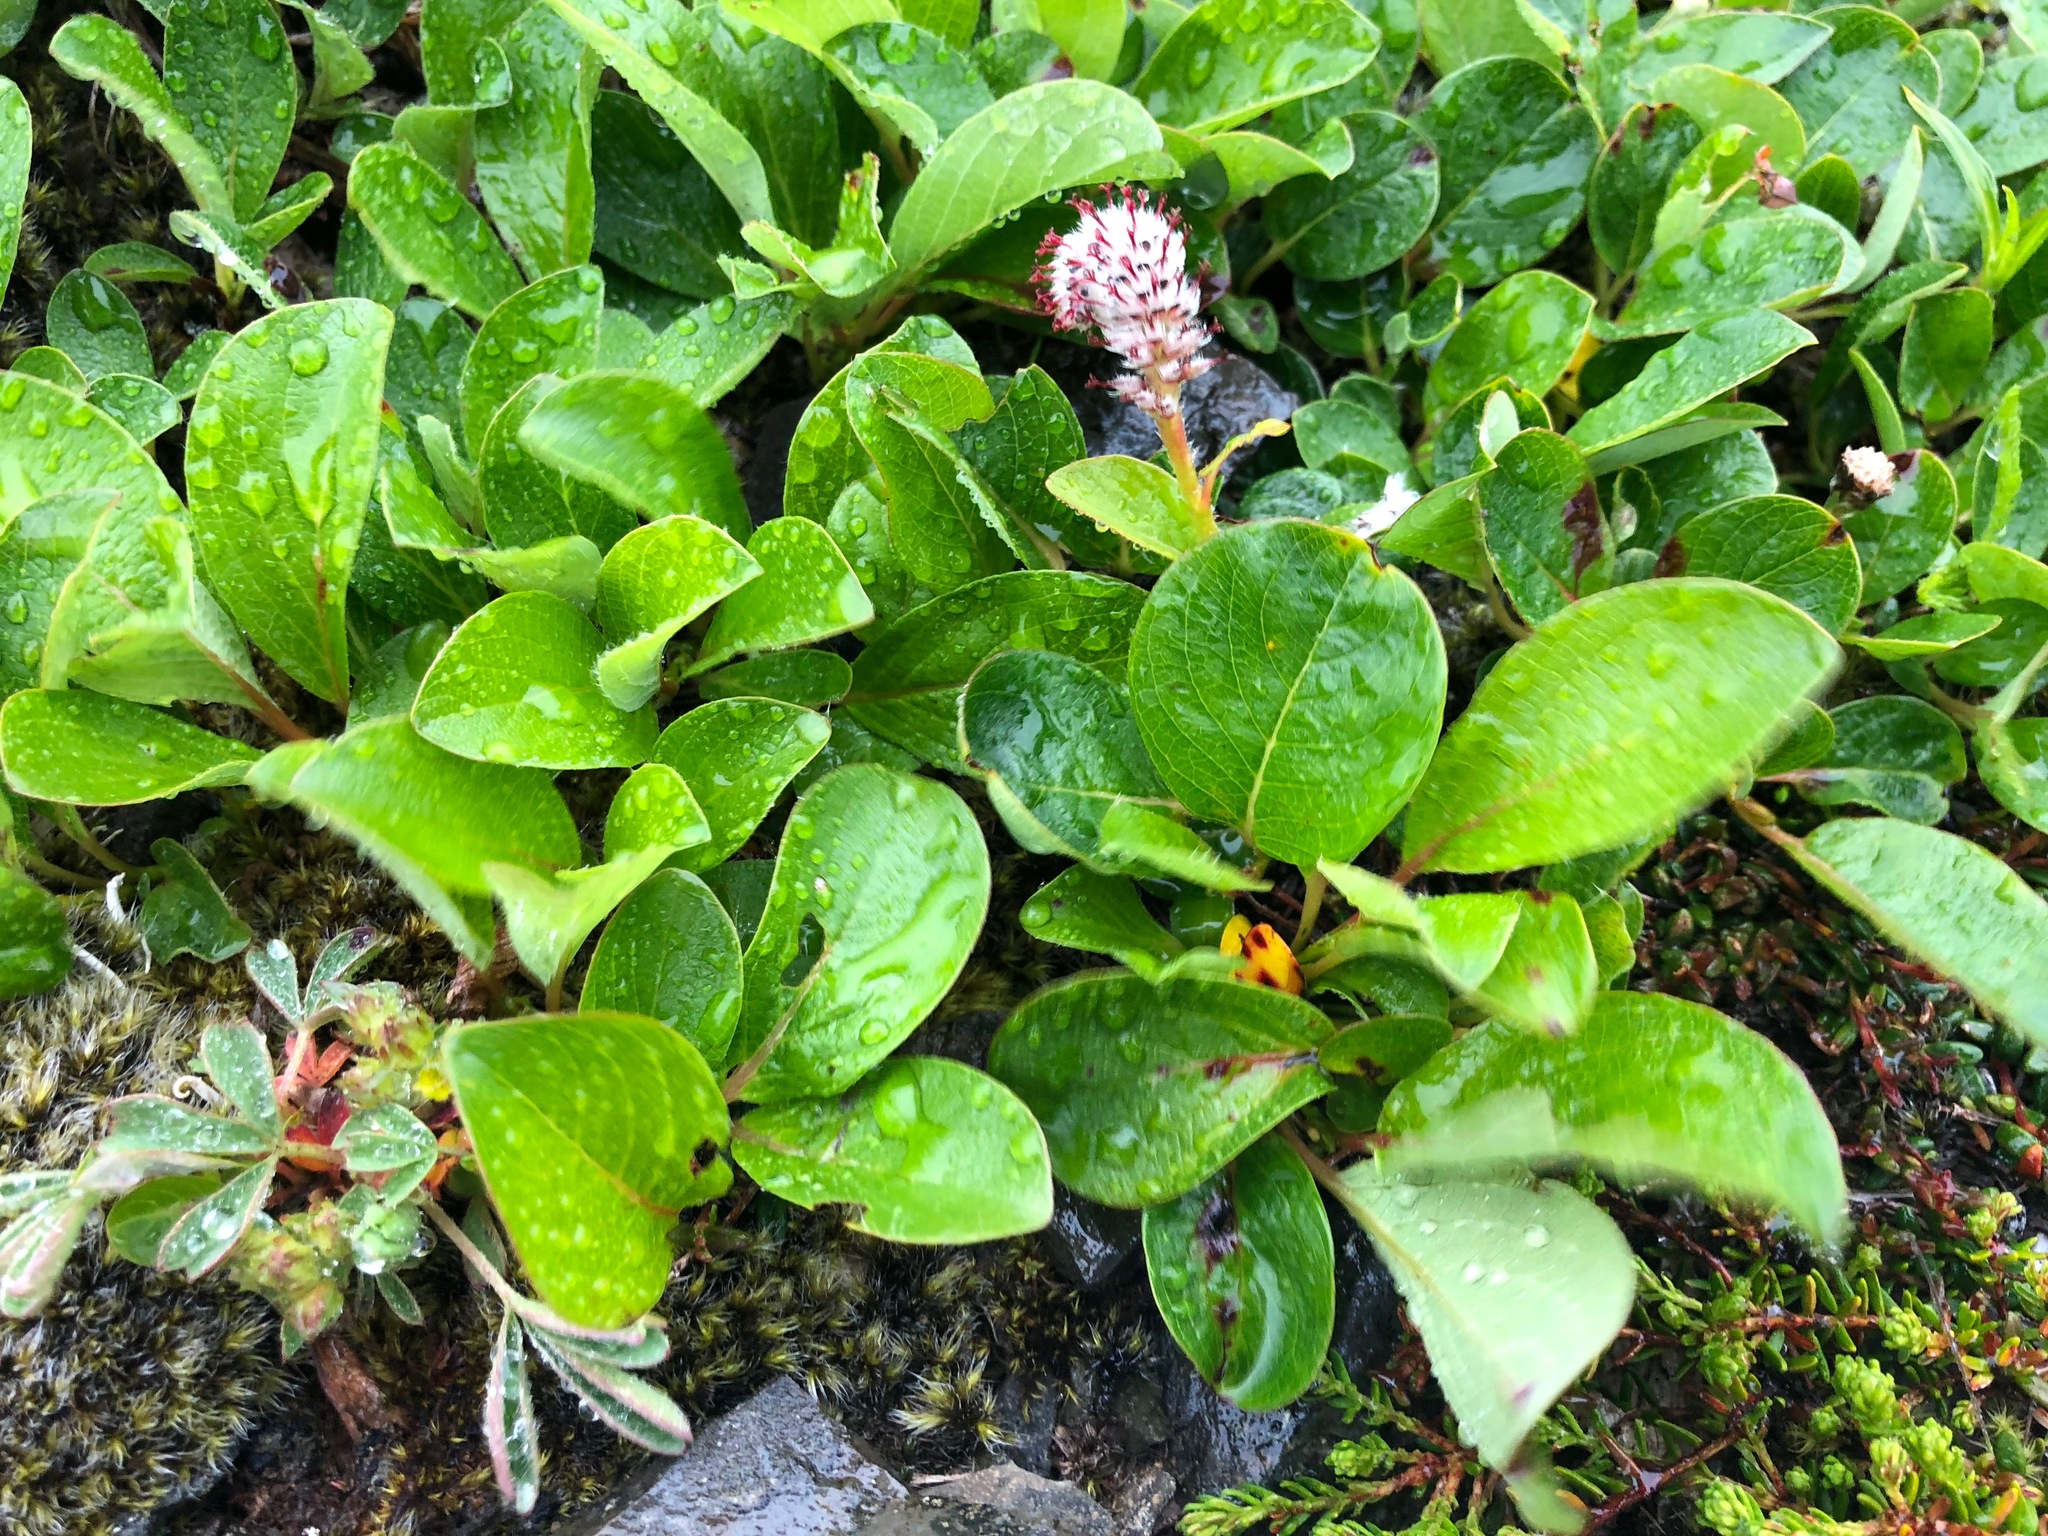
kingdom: Plantae
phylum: Tracheophyta
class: Magnoliopsida
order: Malpighiales
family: Salicaceae
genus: Salix
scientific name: Salix arctica
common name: Arctic willow
